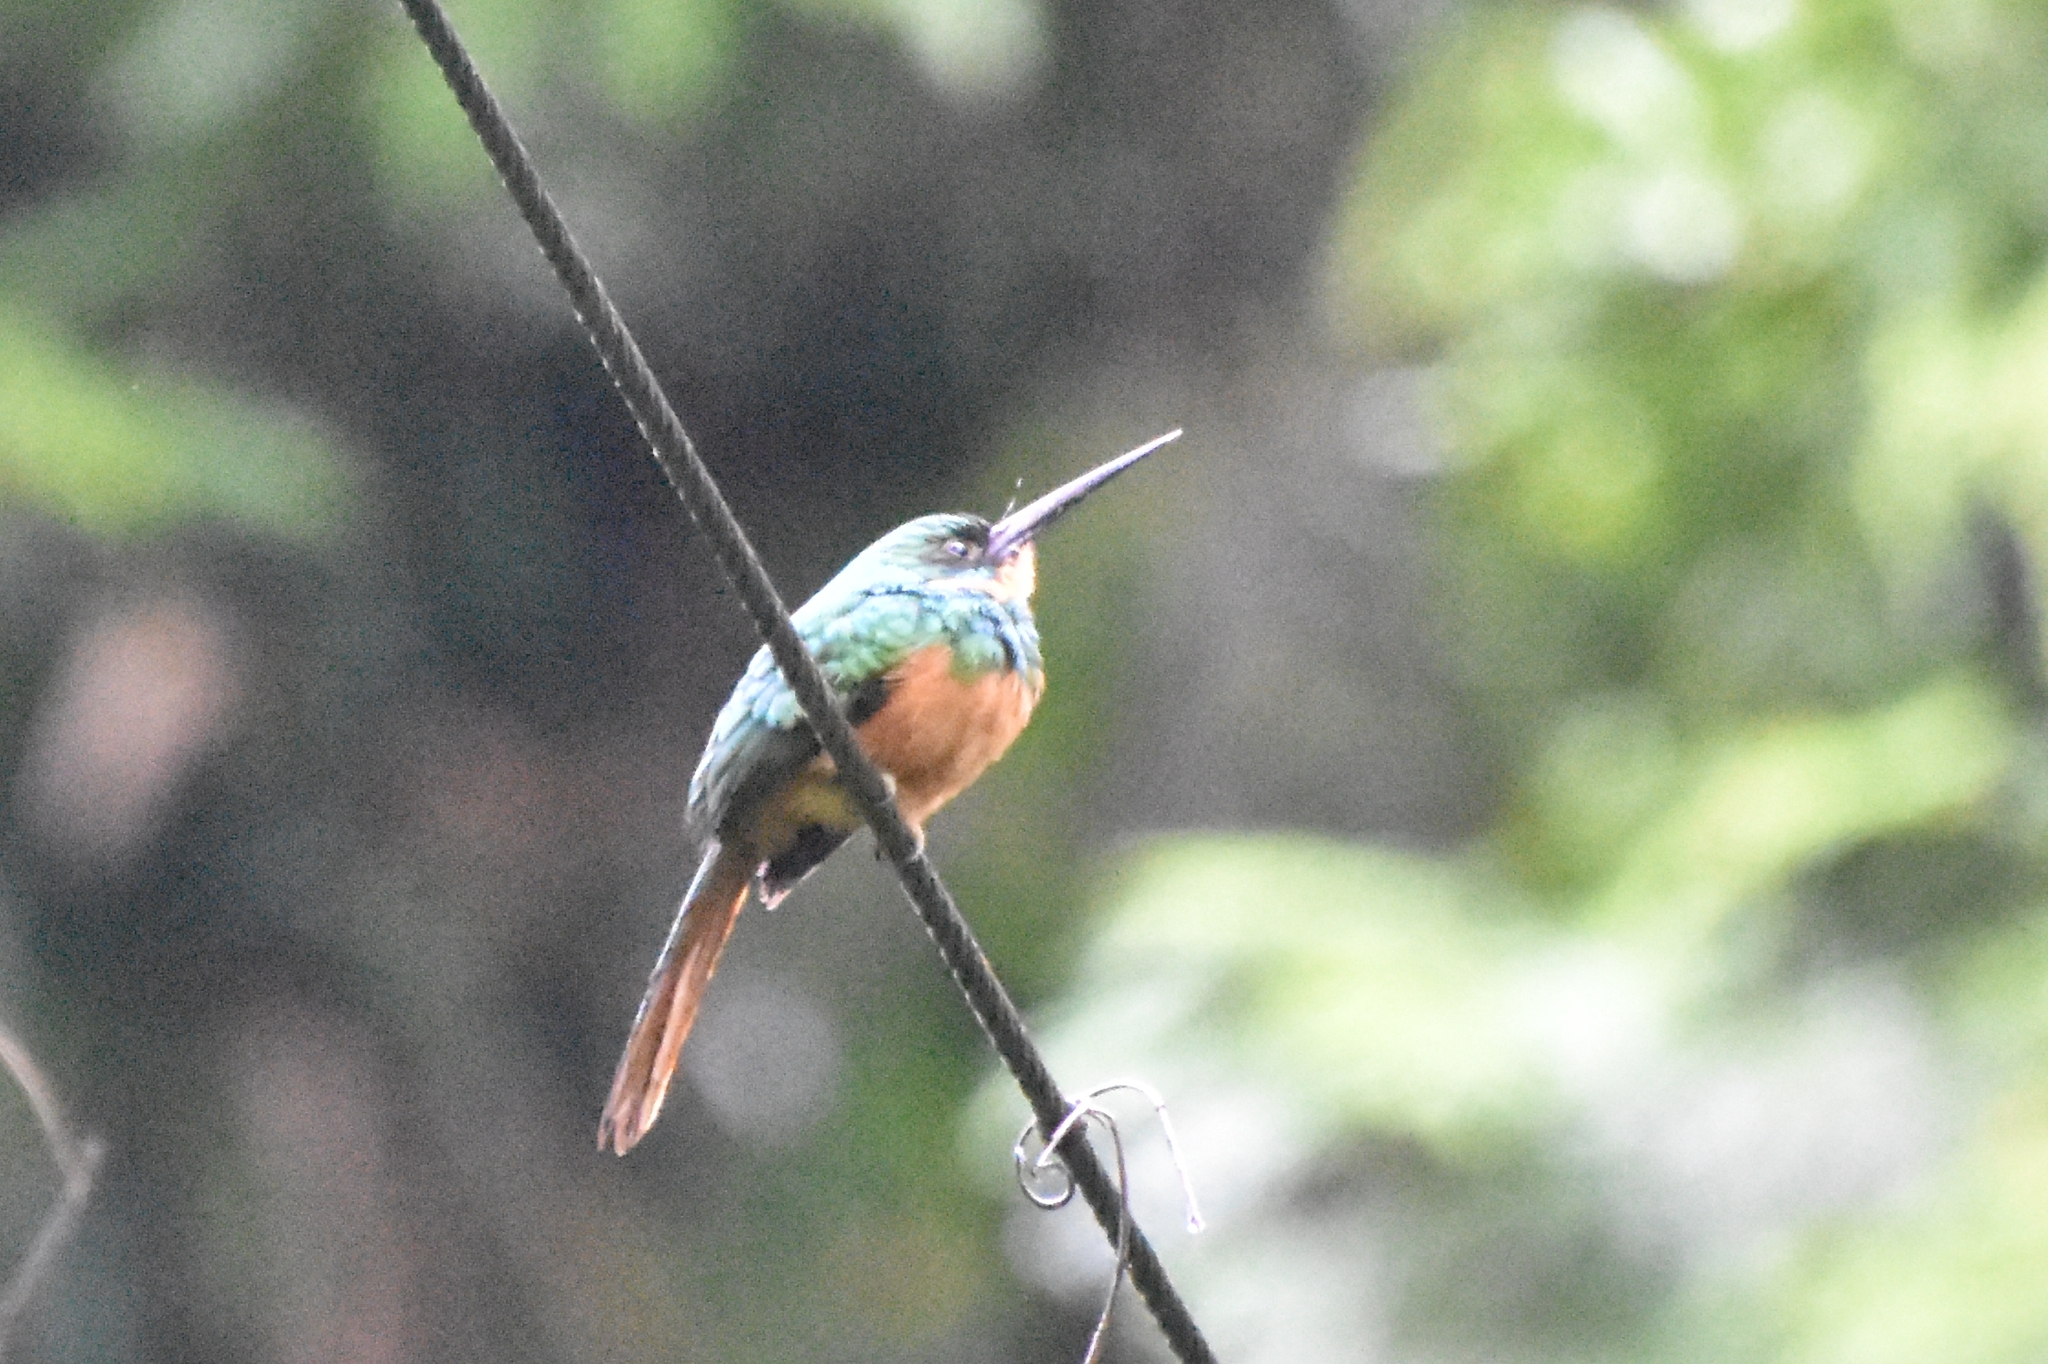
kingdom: Animalia
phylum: Chordata
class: Aves
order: Piciformes
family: Galbulidae
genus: Galbula
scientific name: Galbula ruficauda
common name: Rufous-tailed jacamar
